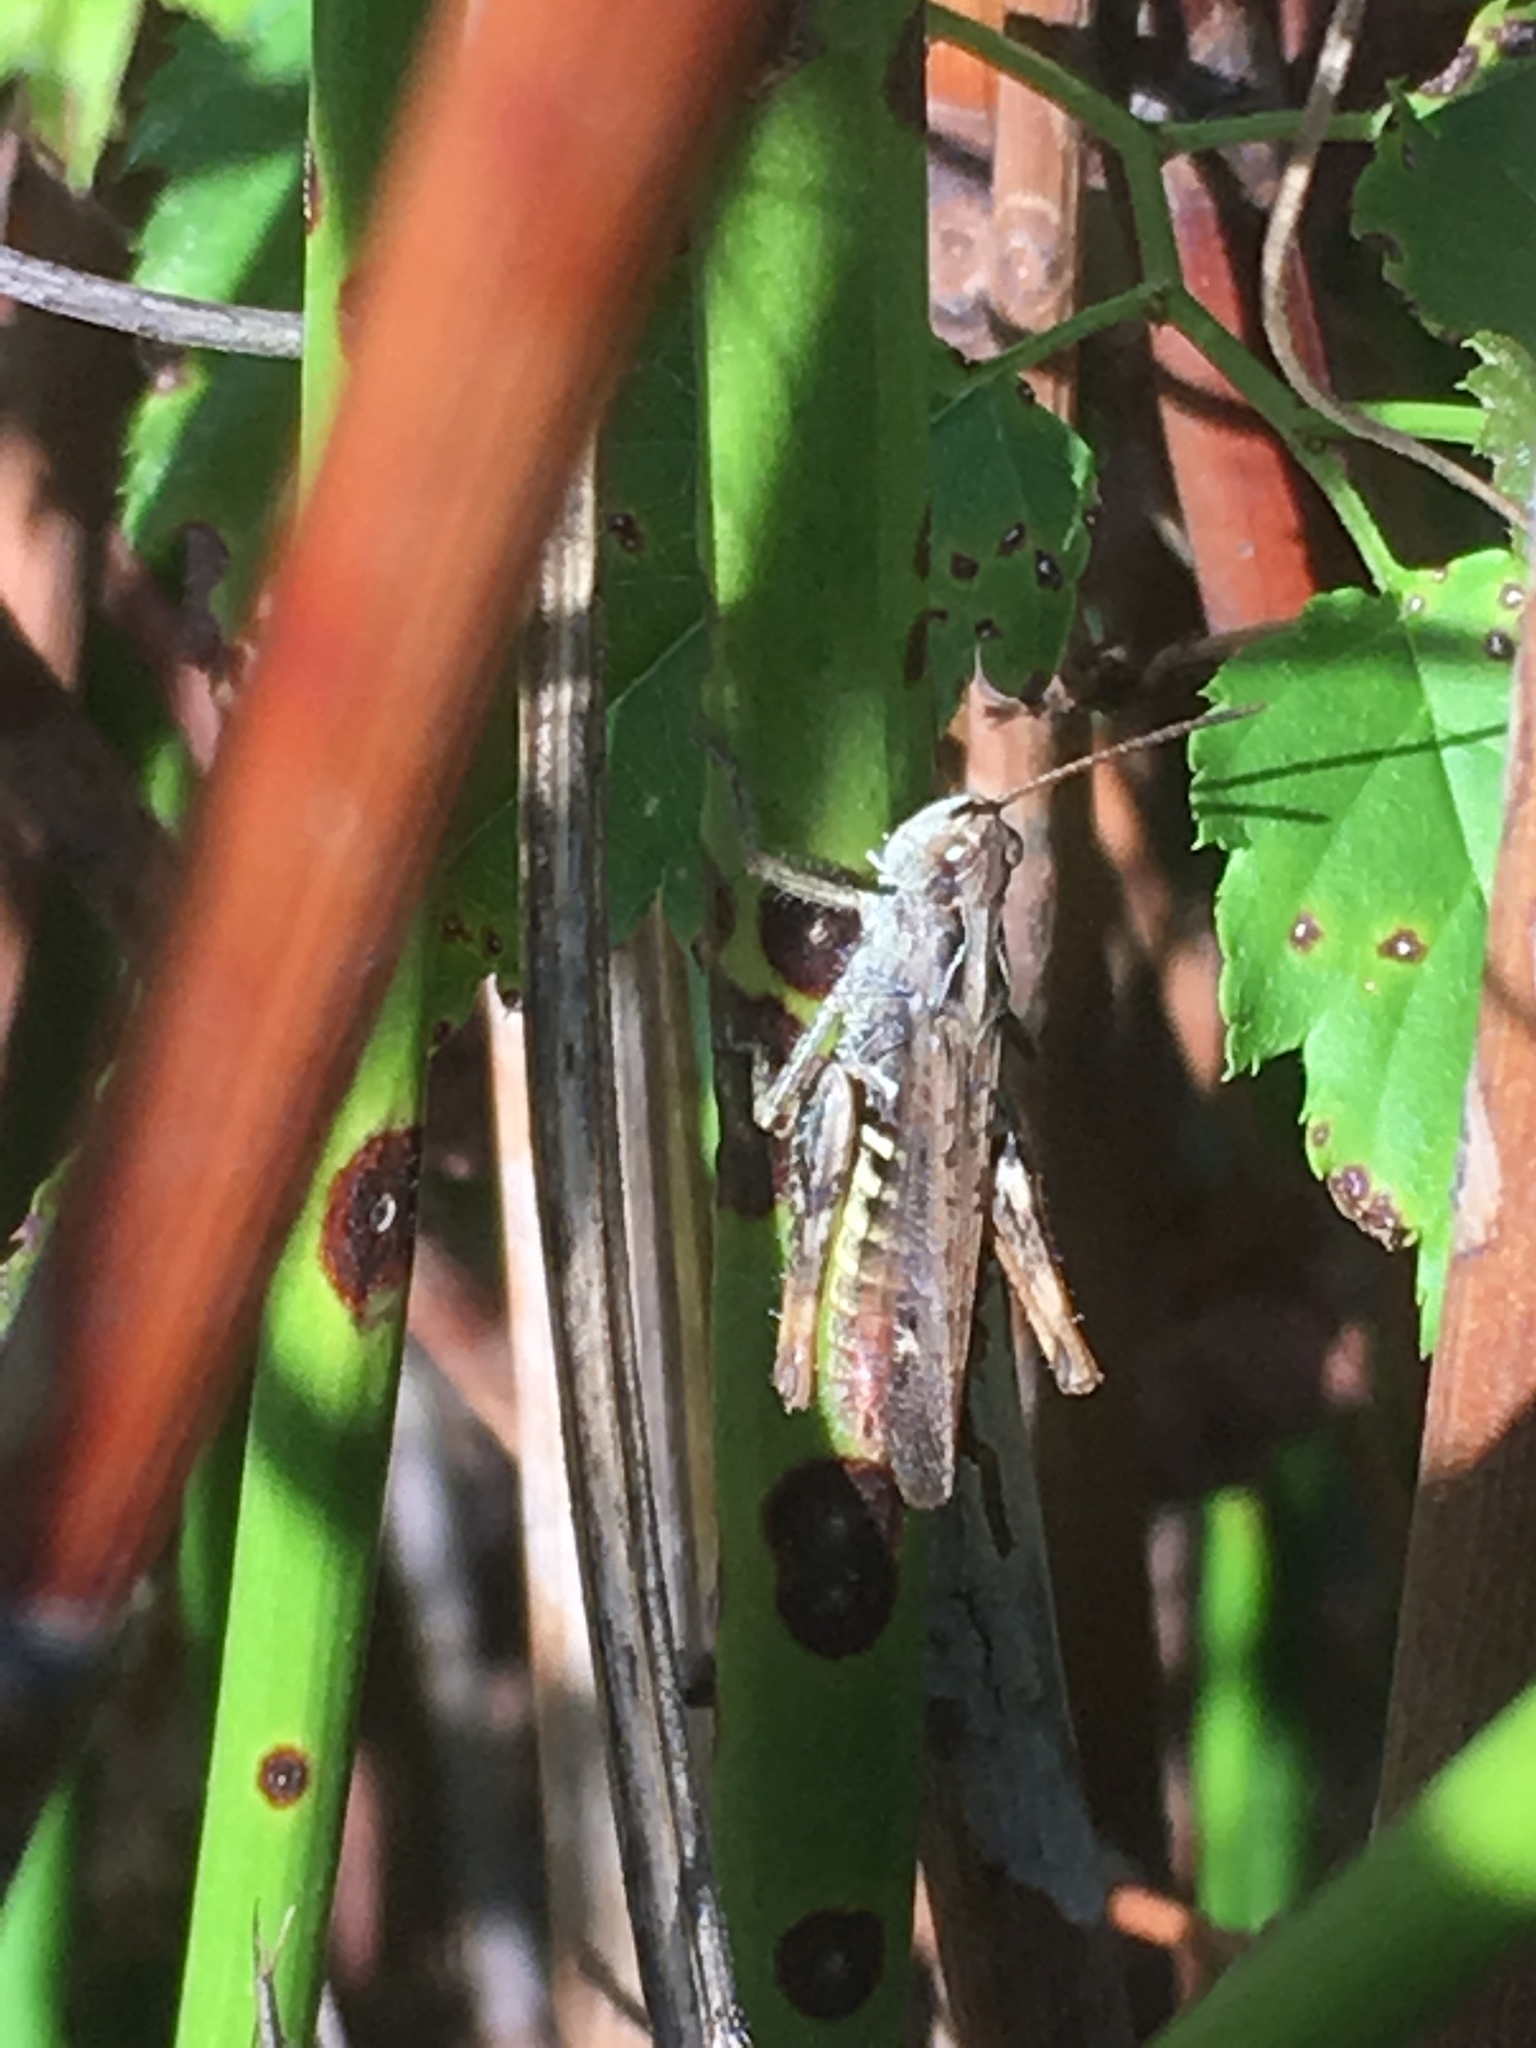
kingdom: Animalia
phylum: Arthropoda
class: Insecta
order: Orthoptera
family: Acrididae
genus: Chorthippus
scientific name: Chorthippus biguttulus
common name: Bow-winged grasshopper
